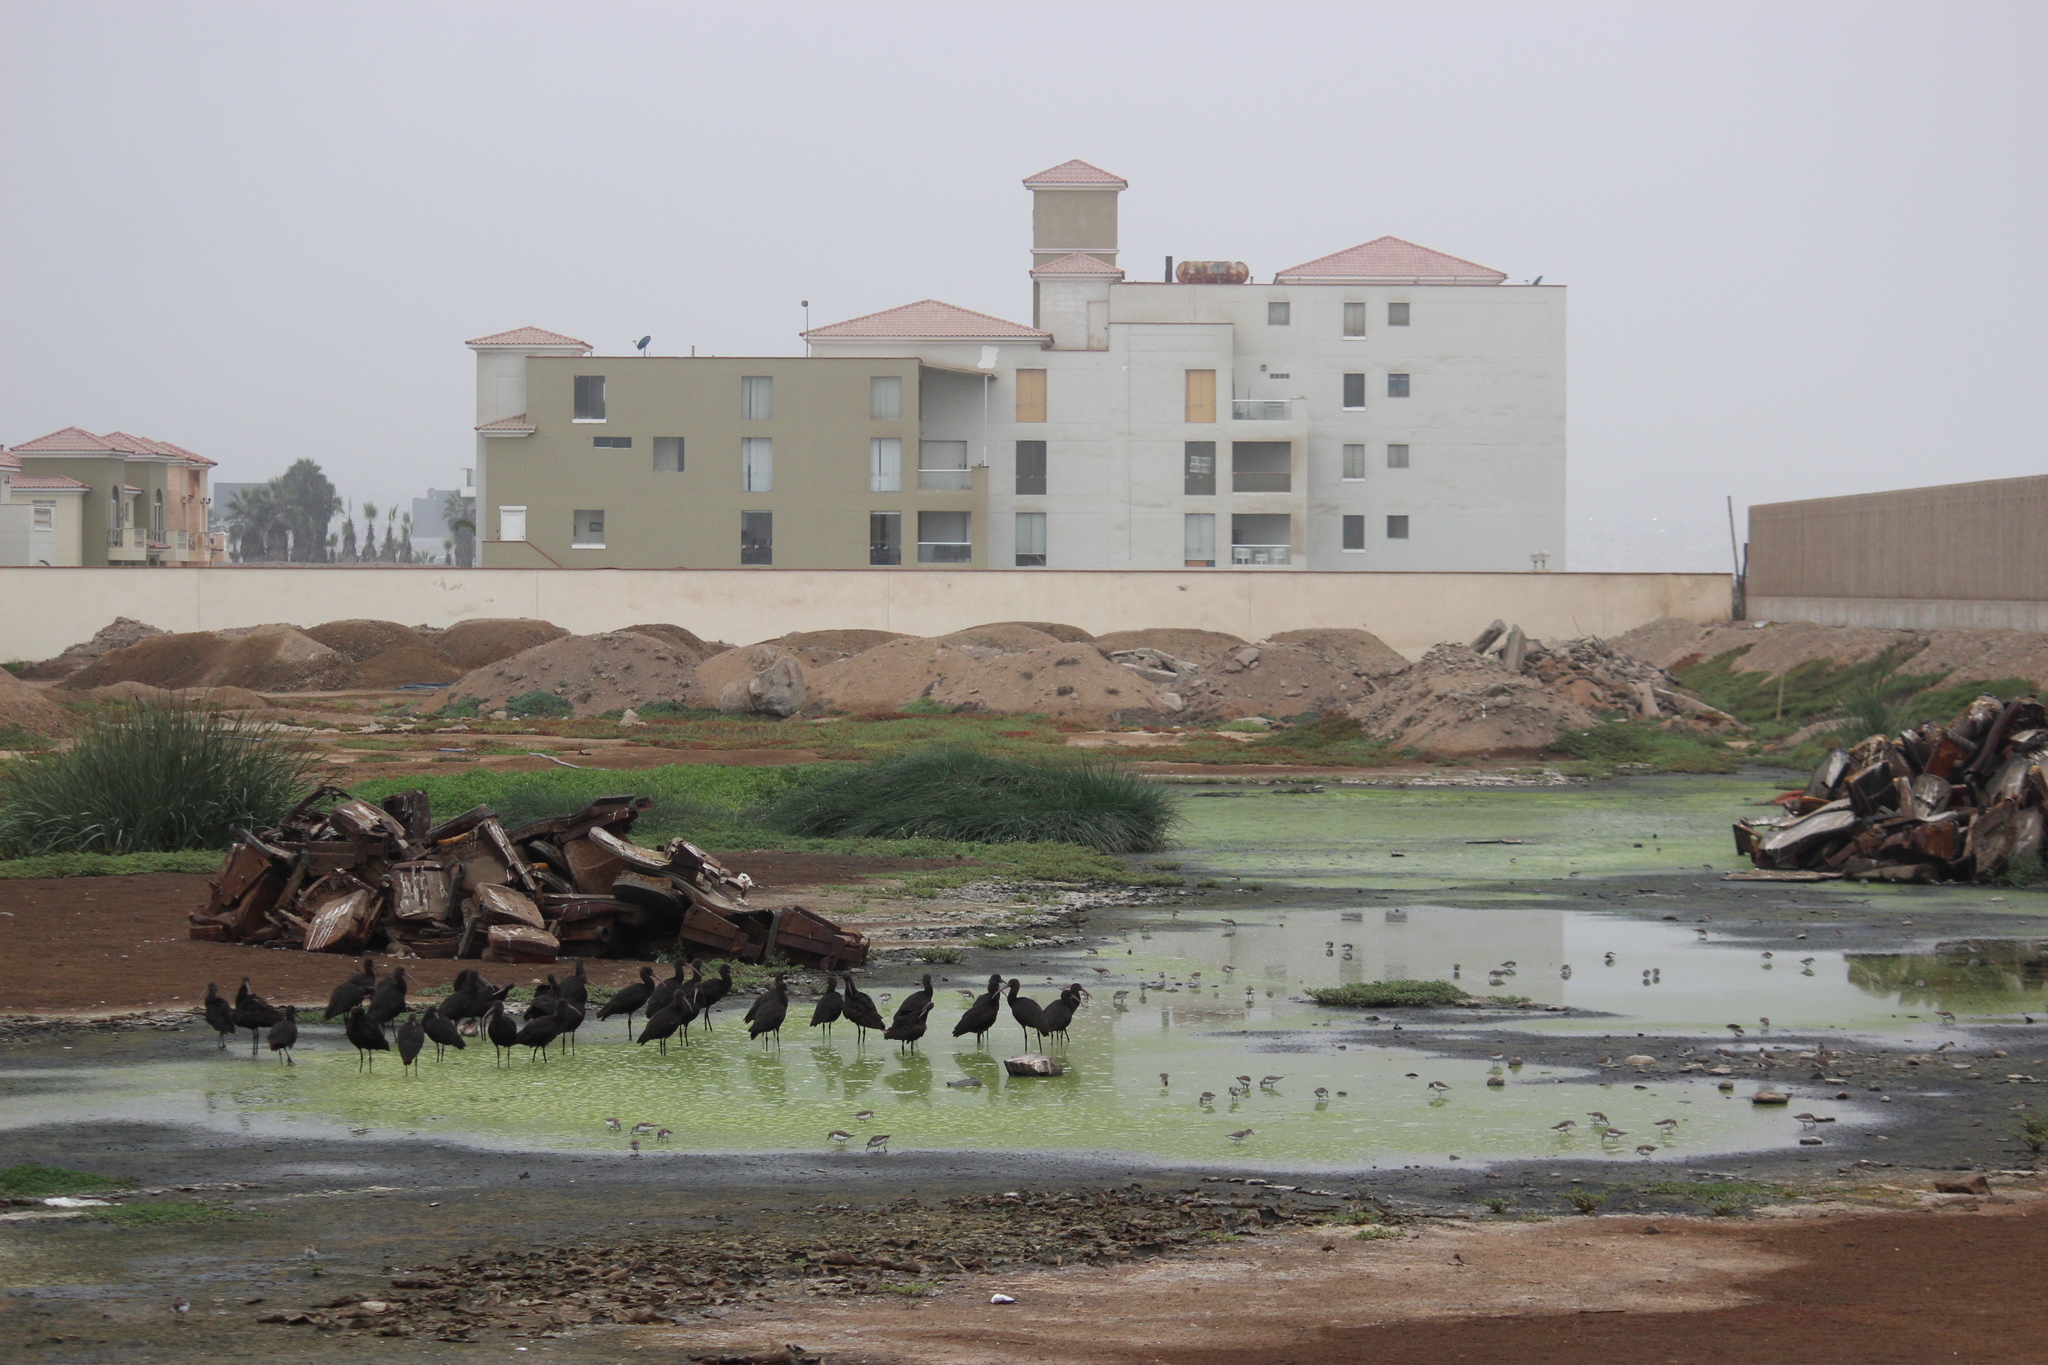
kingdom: Animalia
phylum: Chordata
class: Aves
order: Pelecaniformes
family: Threskiornithidae
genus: Plegadis
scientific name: Plegadis ridgwayi
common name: Puna ibis
